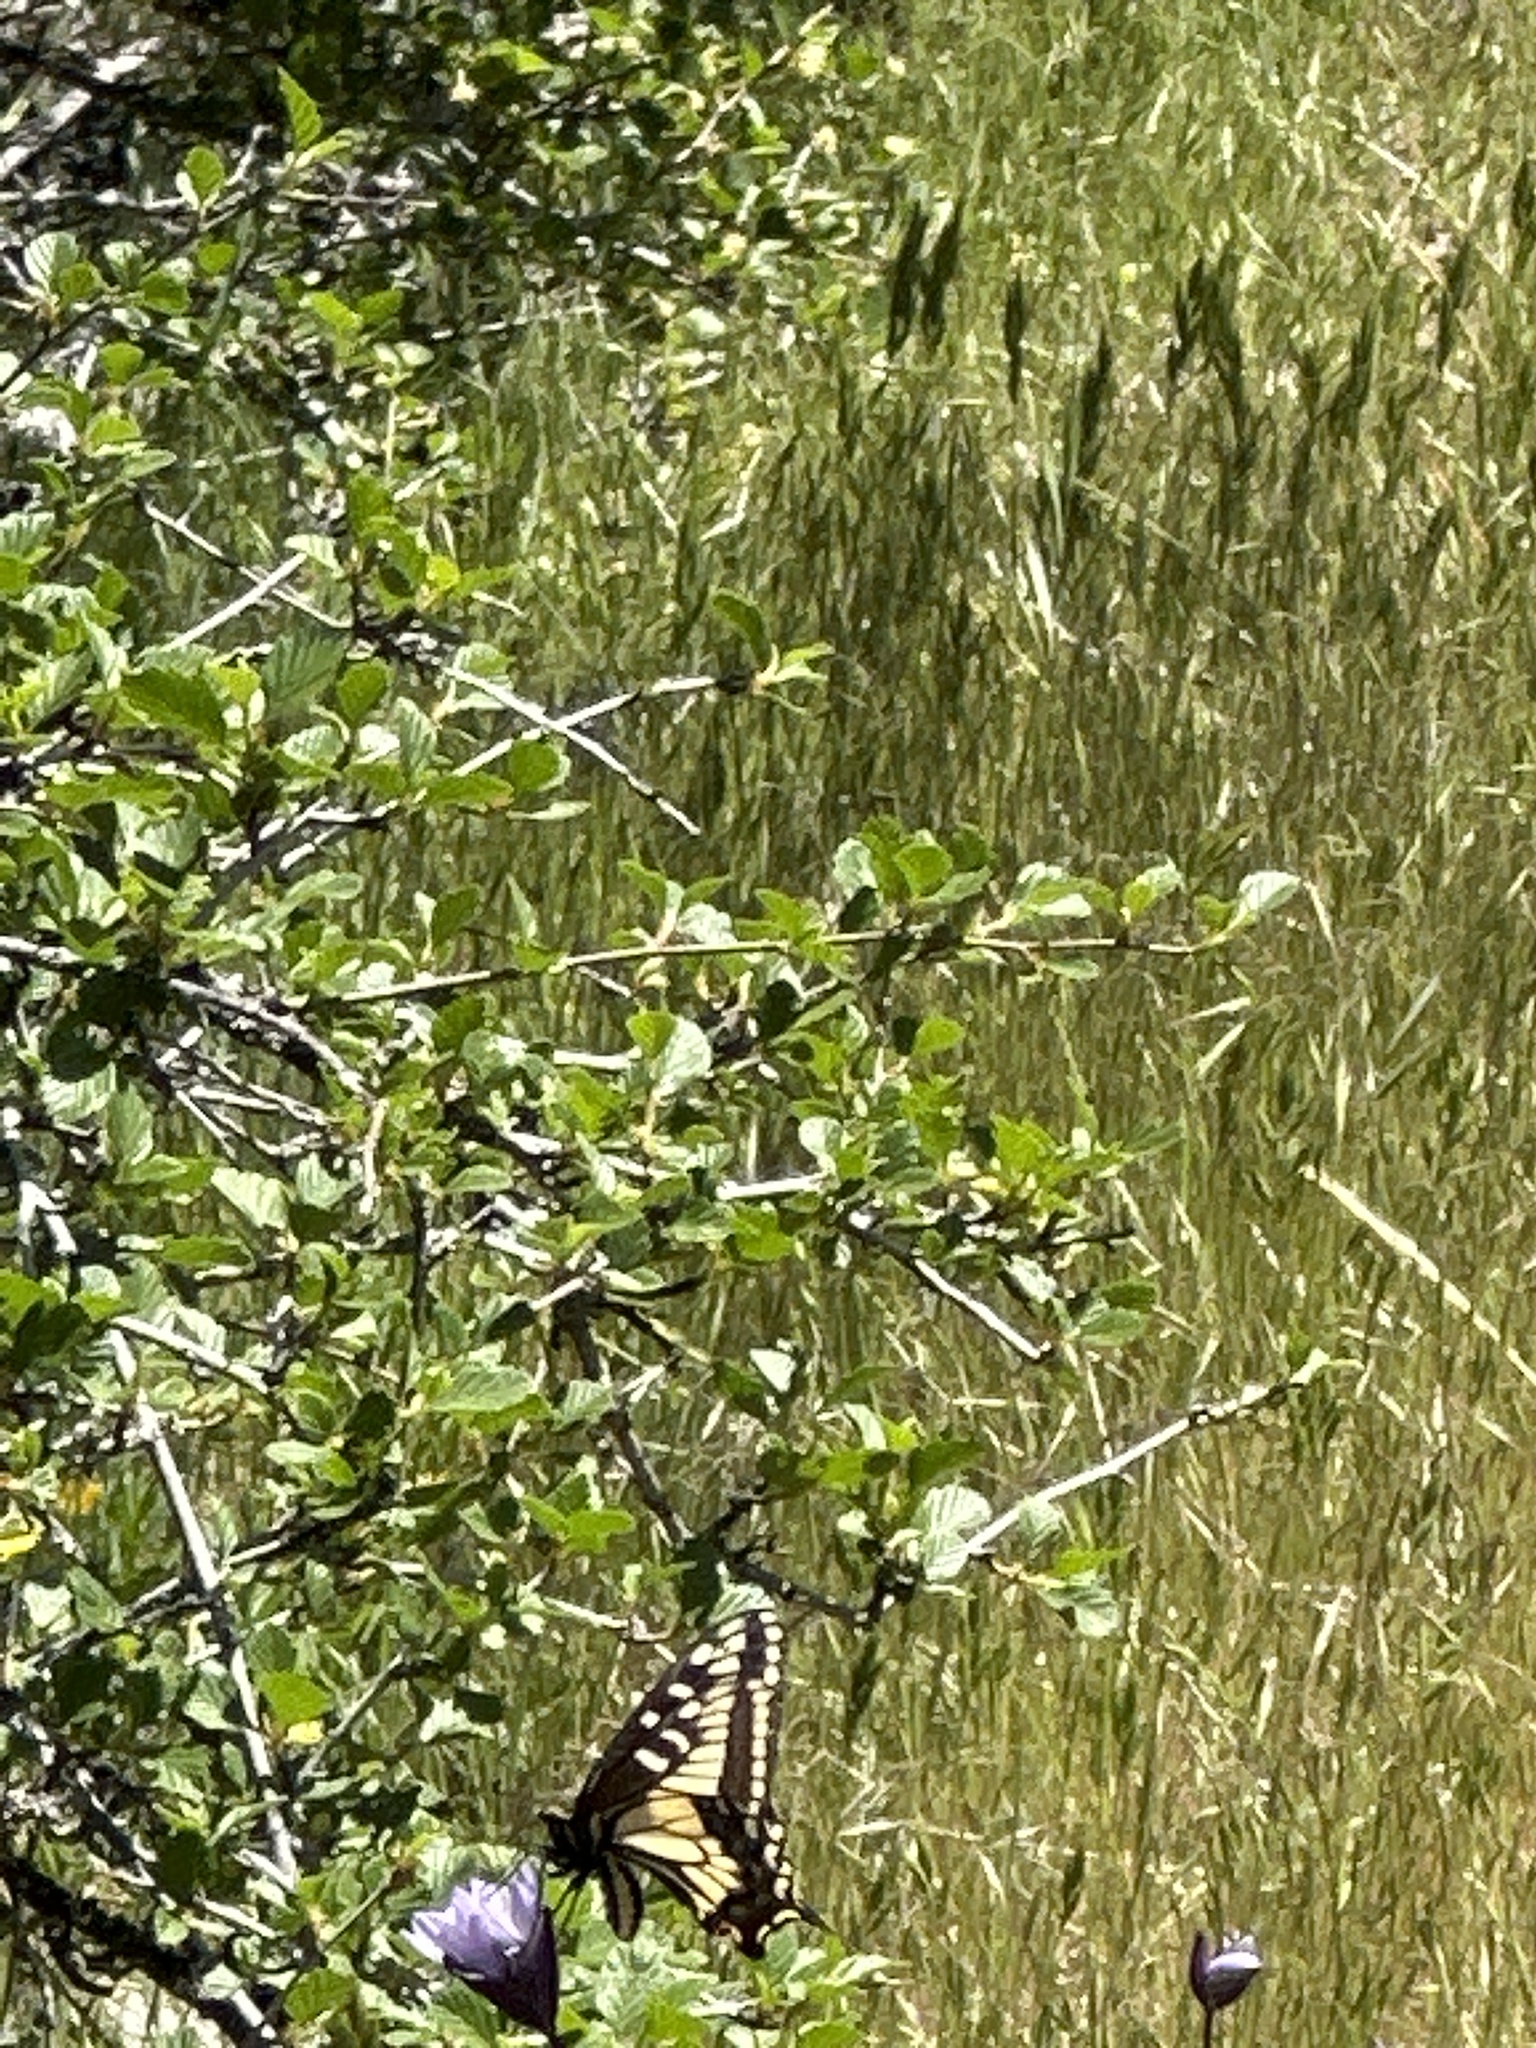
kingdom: Animalia
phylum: Arthropoda
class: Insecta
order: Lepidoptera
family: Papilionidae
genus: Papilio
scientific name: Papilio zelicaon
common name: Anise swallowtail
